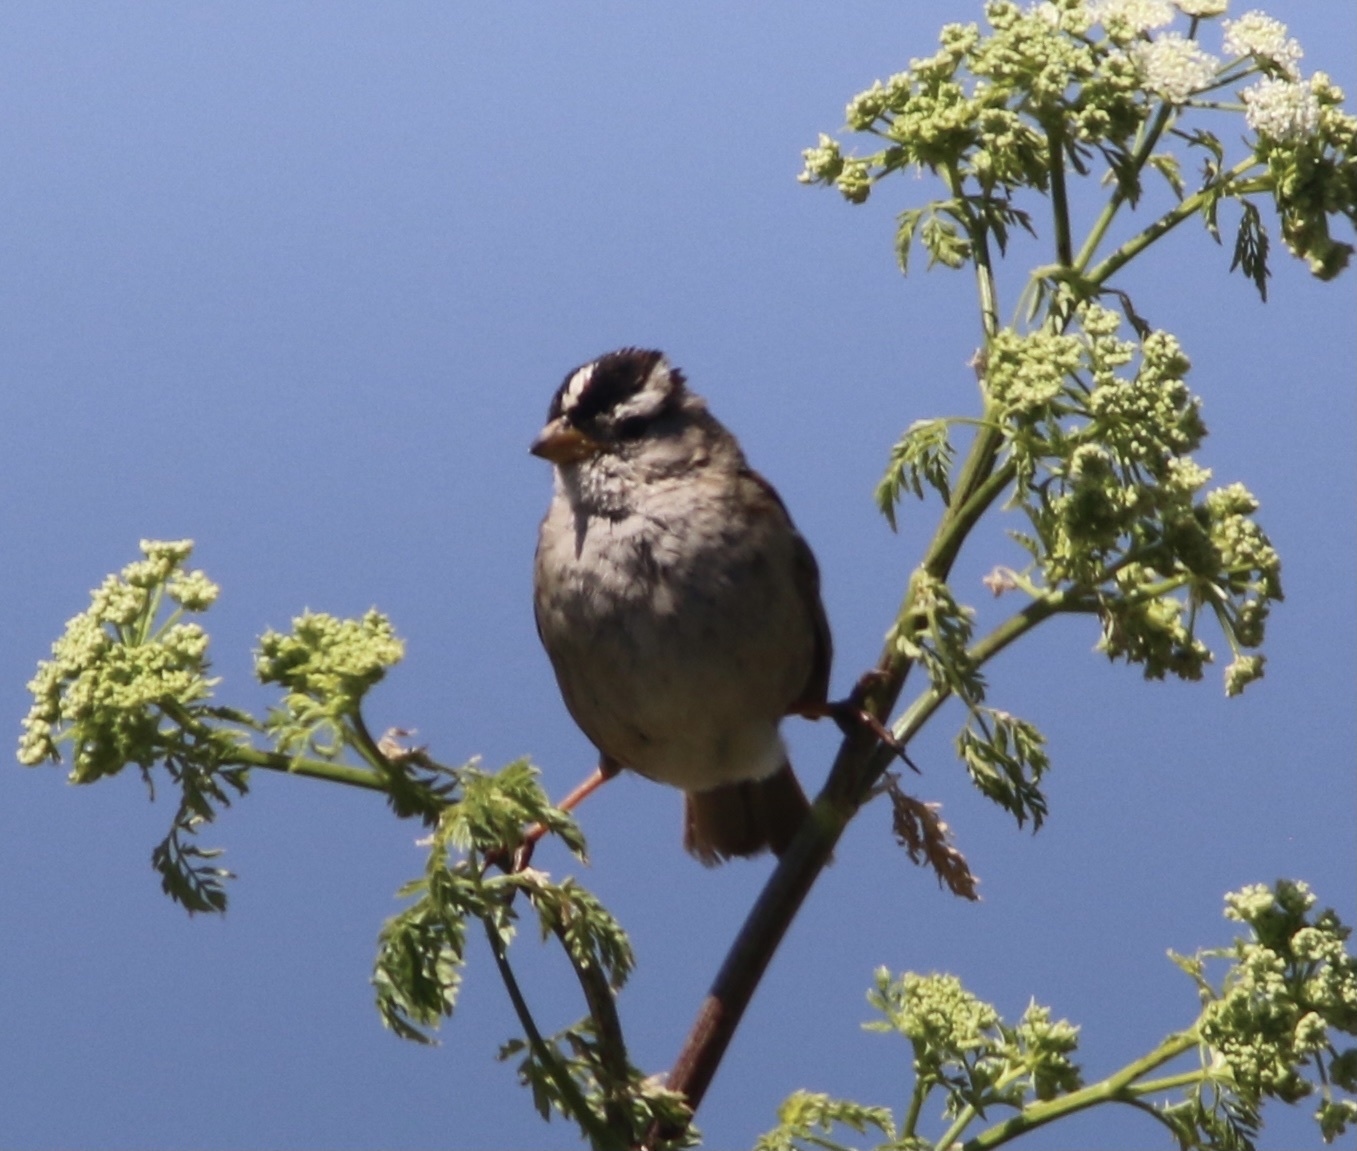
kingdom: Animalia
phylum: Chordata
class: Aves
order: Passeriformes
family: Passerellidae
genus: Zonotrichia
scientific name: Zonotrichia leucophrys
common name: White-crowned sparrow
